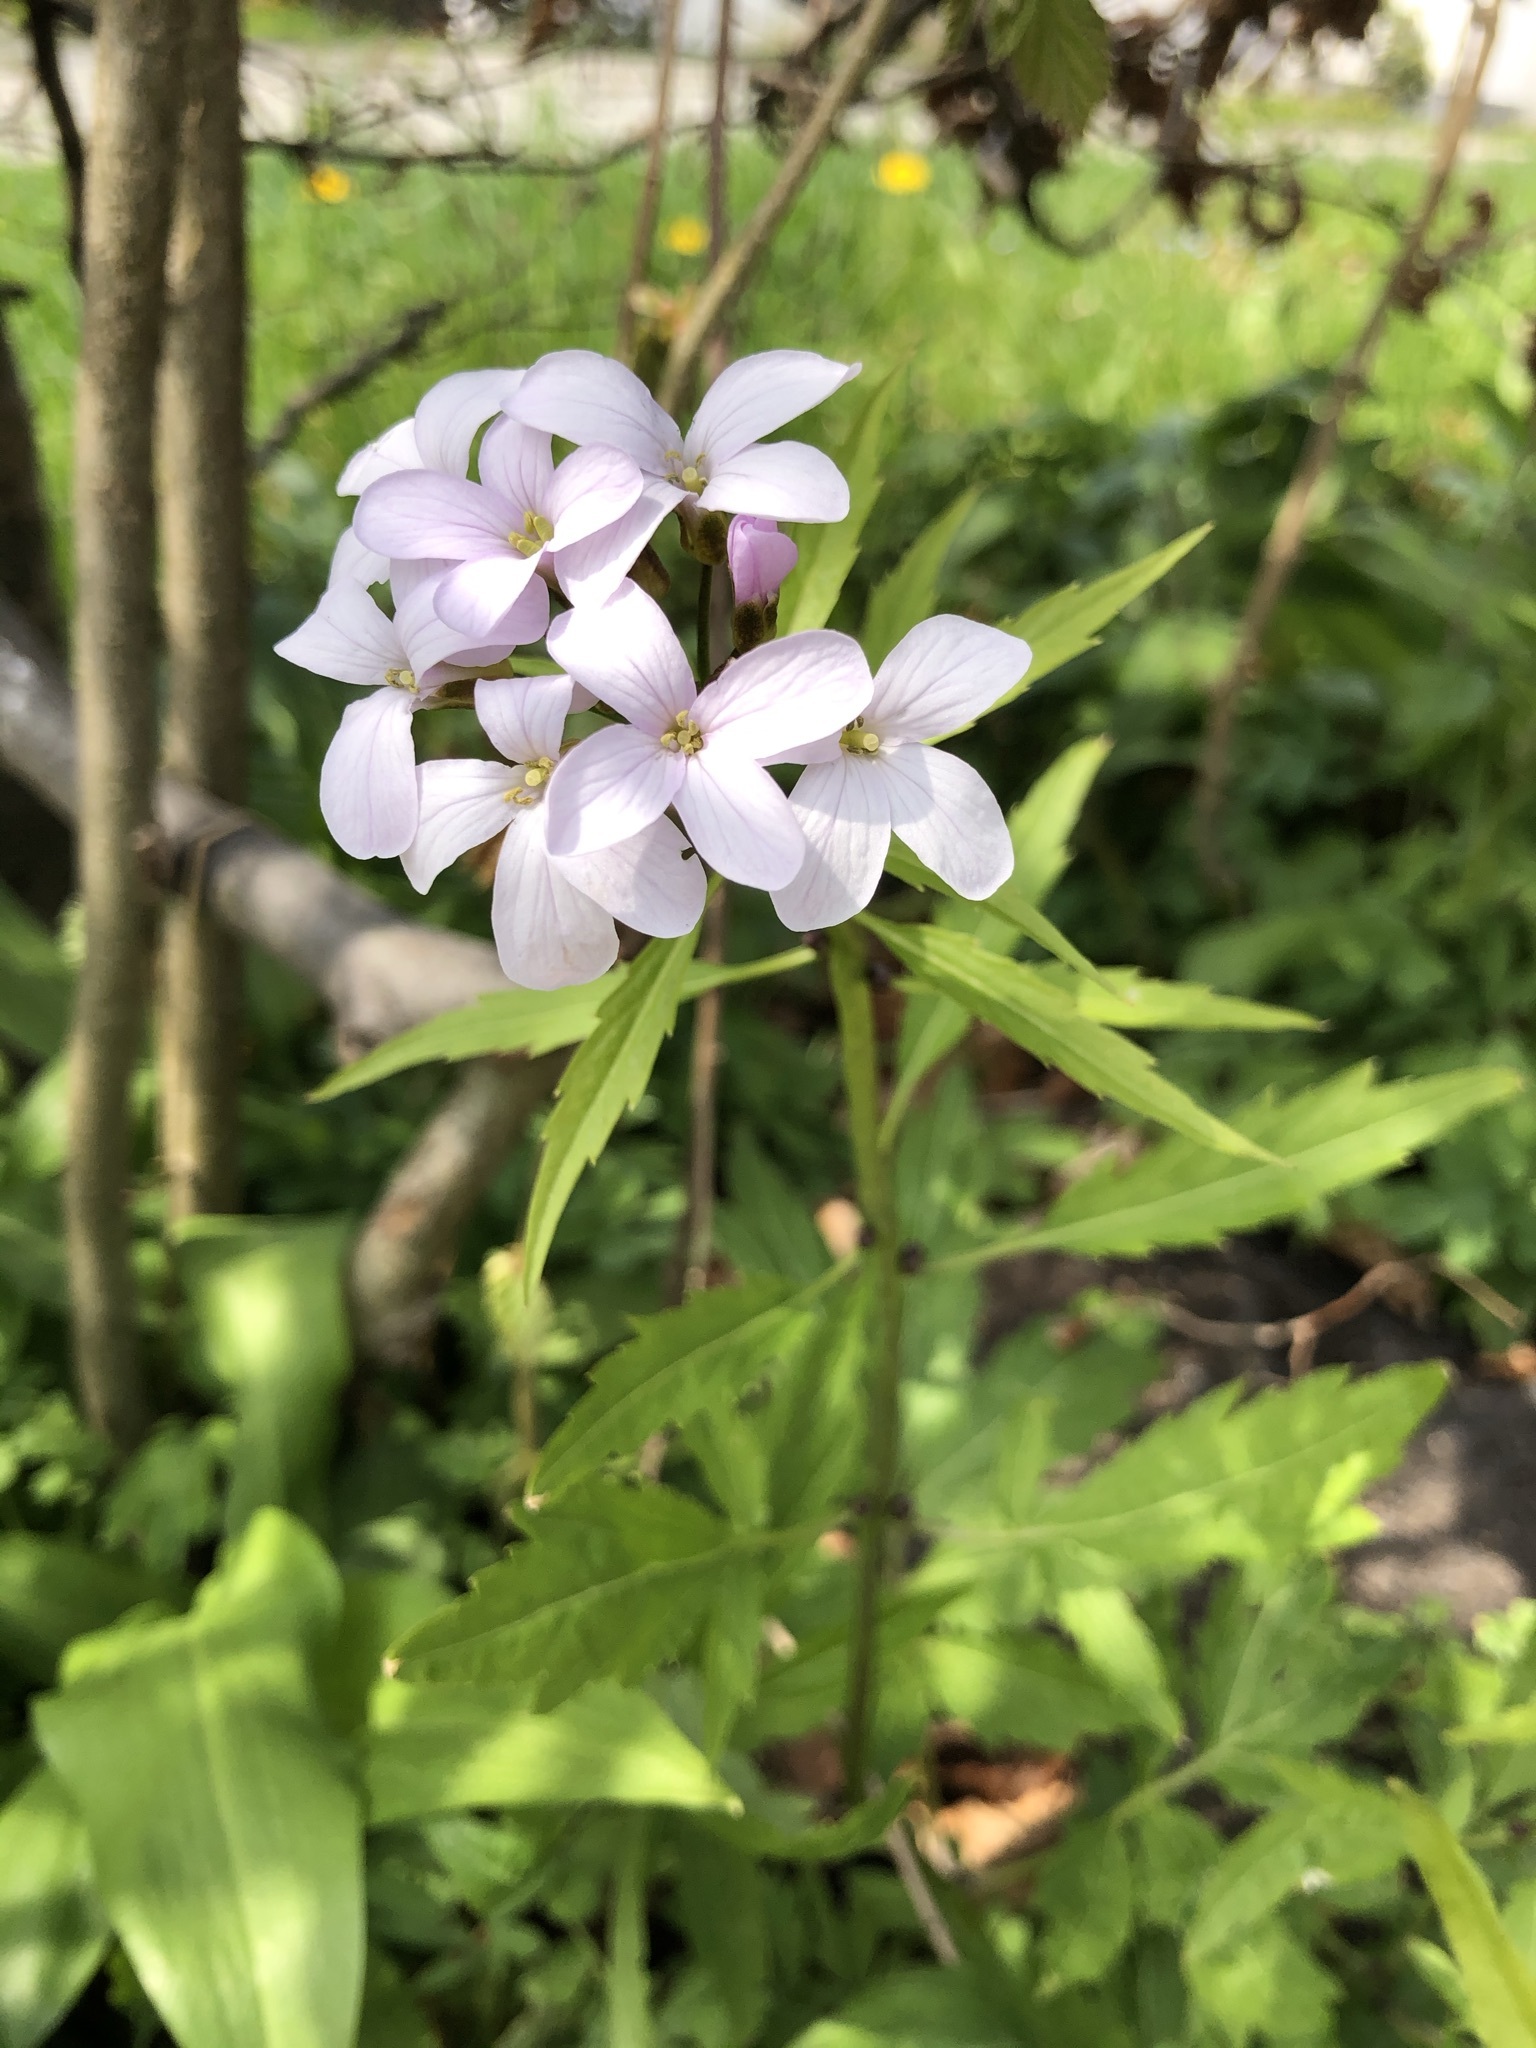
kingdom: Plantae
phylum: Tracheophyta
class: Magnoliopsida
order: Brassicales
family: Brassicaceae
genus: Cardamine
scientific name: Cardamine bulbifera
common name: Coralroot bittercress
